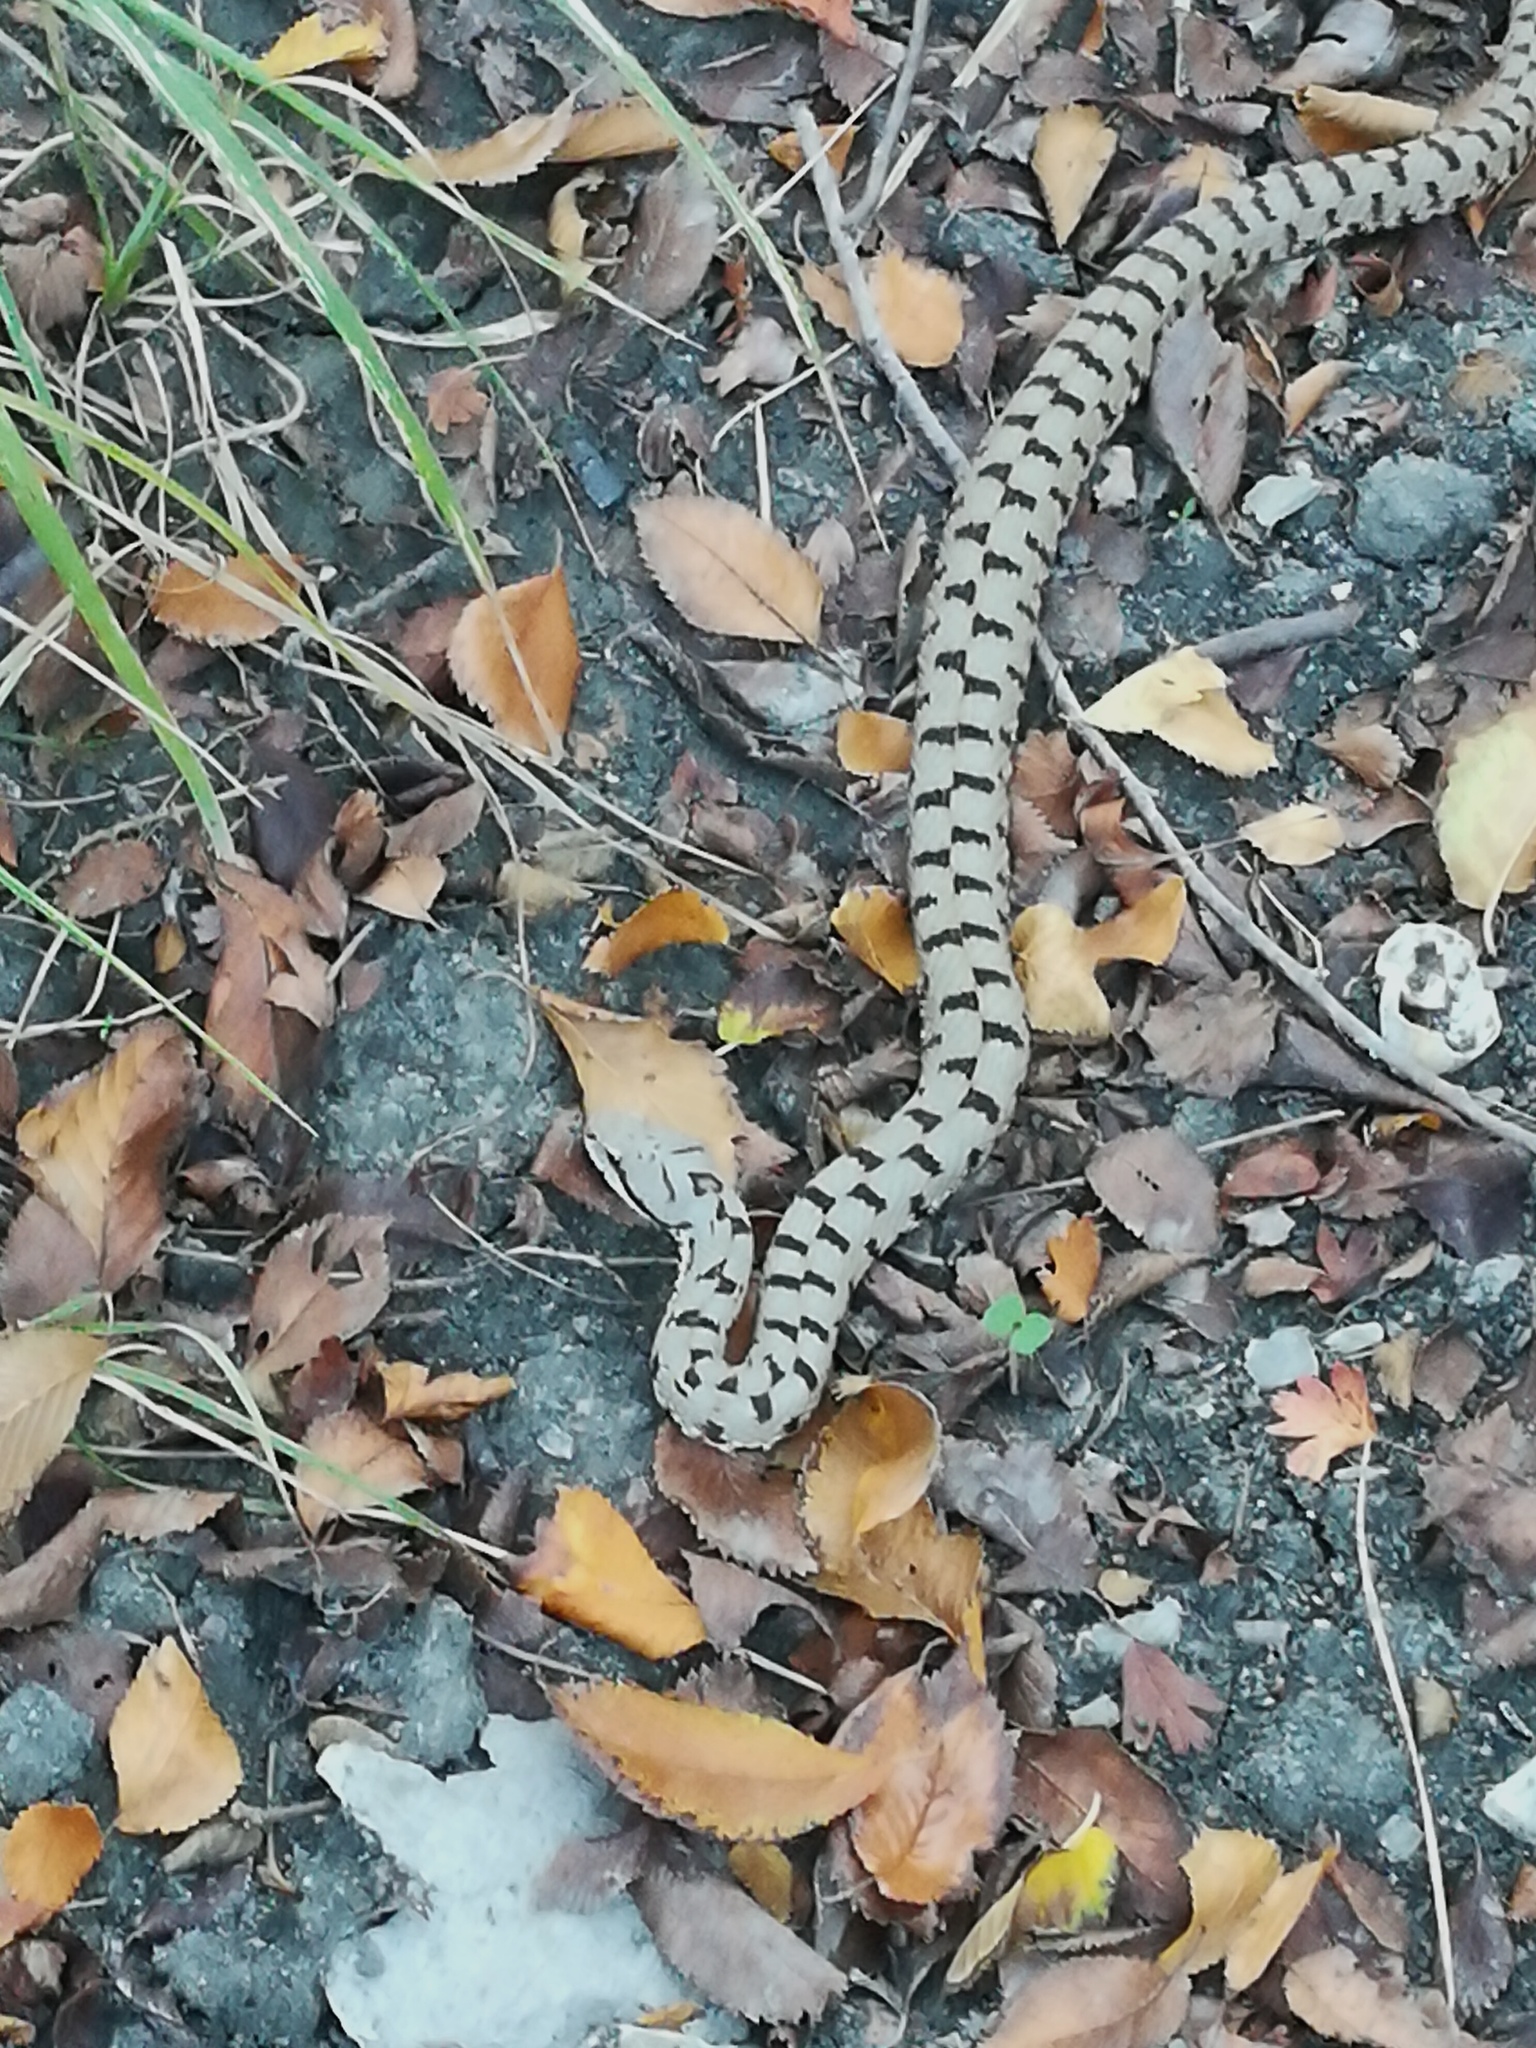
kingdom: Animalia
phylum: Chordata
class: Squamata
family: Viperidae
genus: Vipera
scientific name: Vipera aspis
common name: Asp viper
